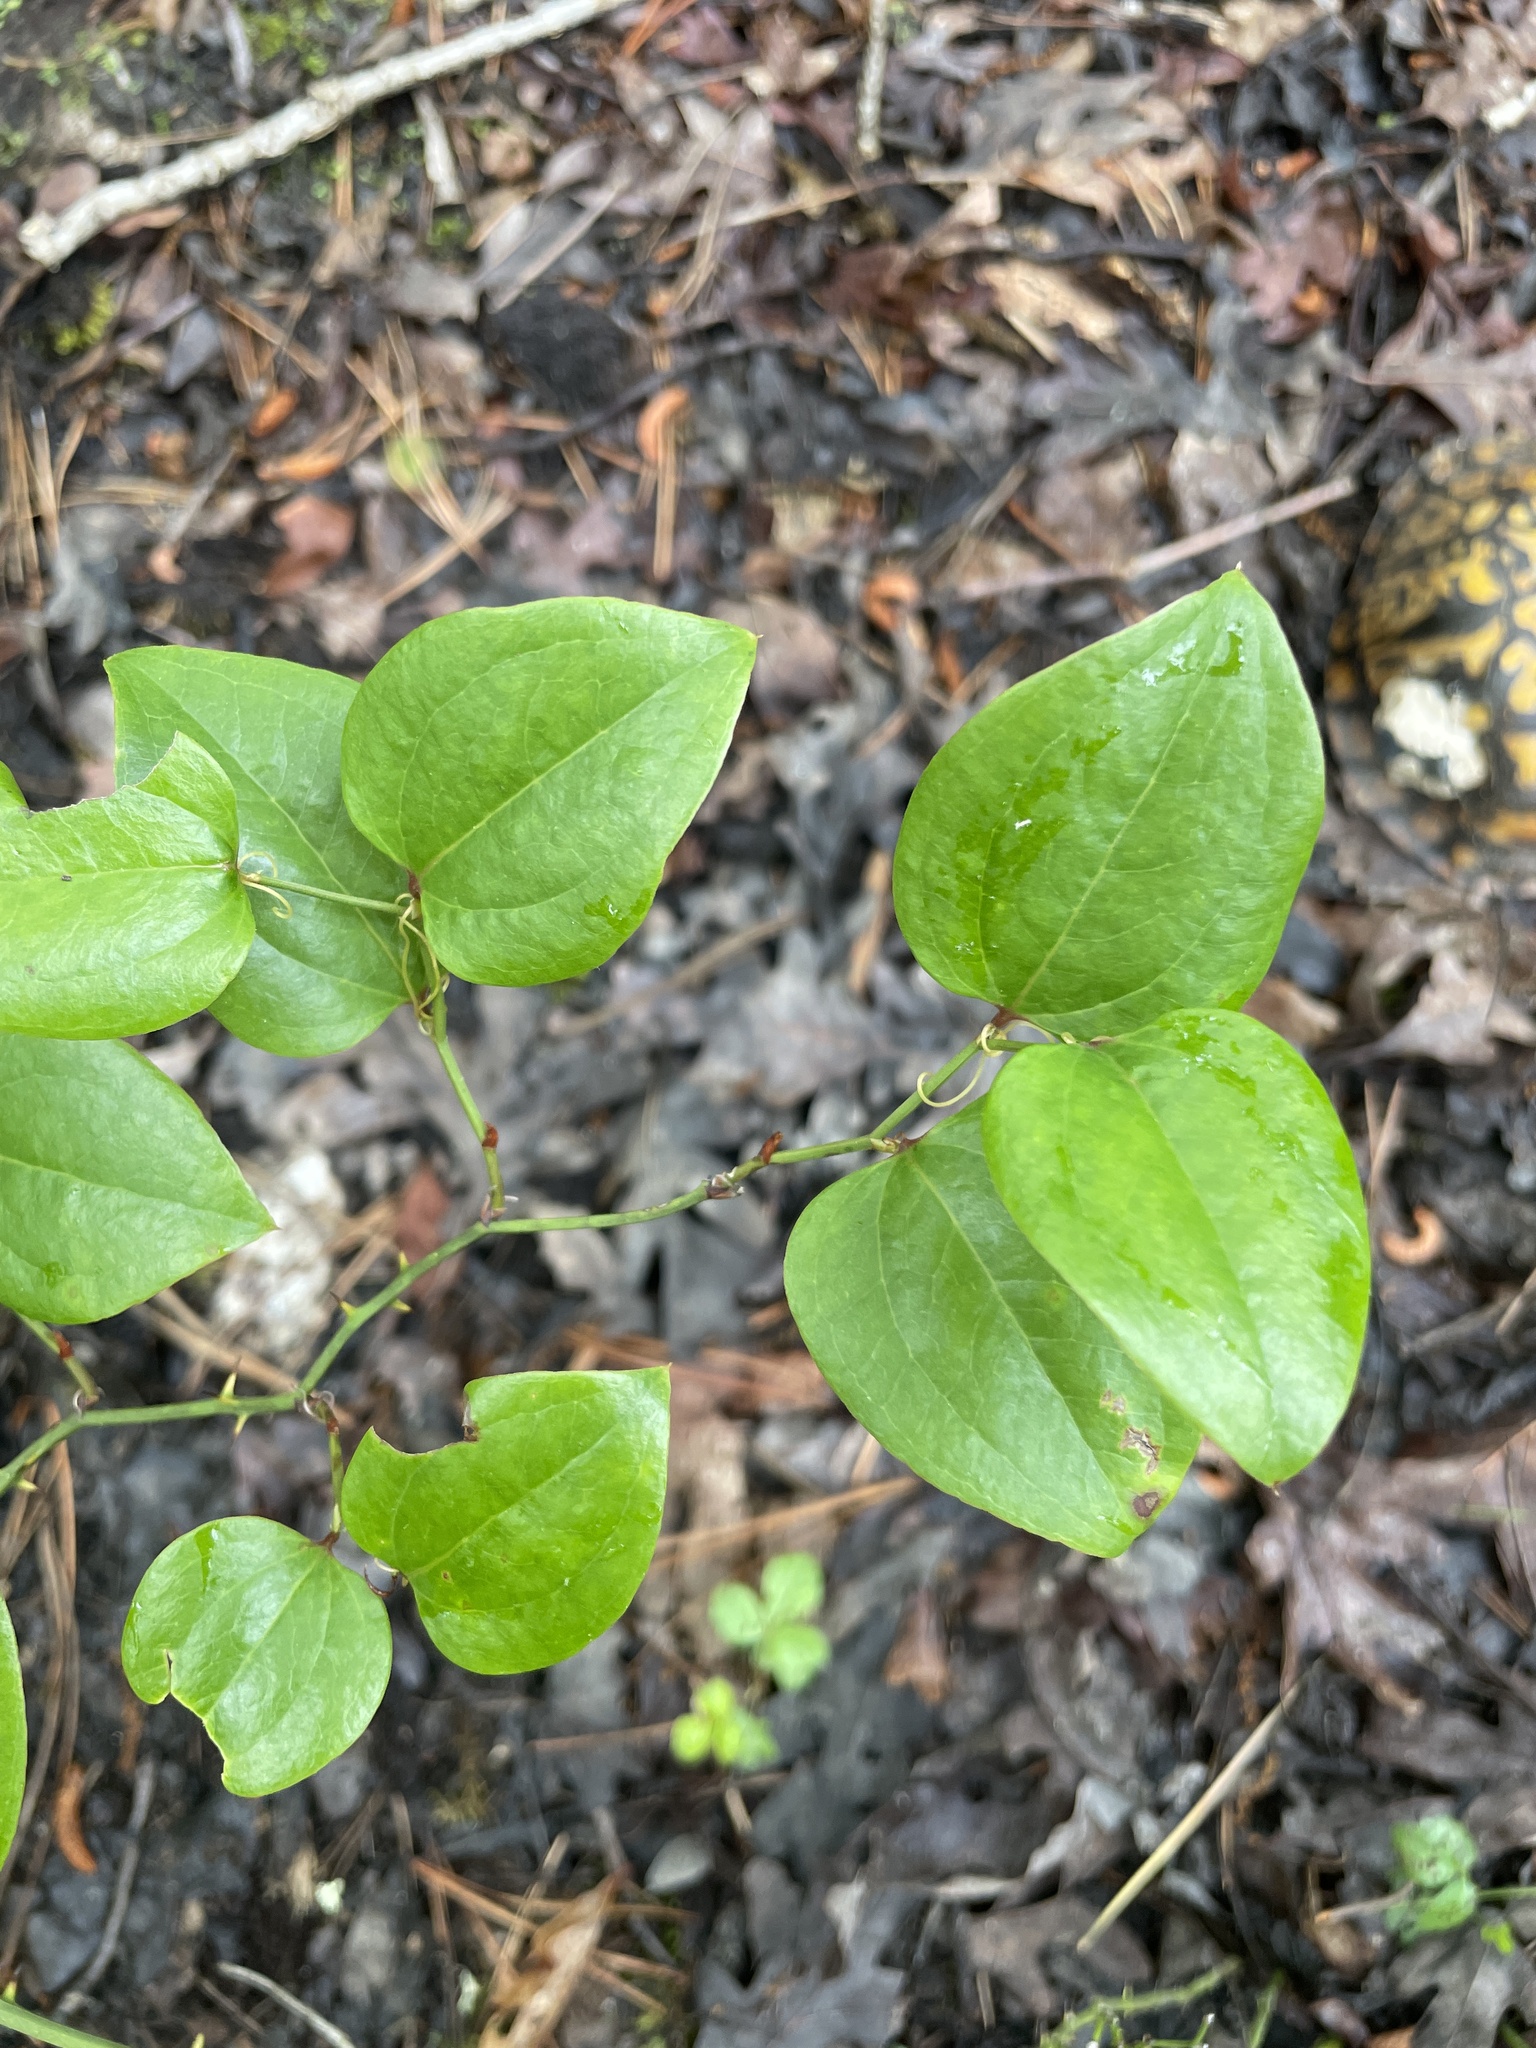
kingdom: Plantae
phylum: Tracheophyta
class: Liliopsida
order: Liliales
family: Smilacaceae
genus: Smilax
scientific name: Smilax rotundifolia
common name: Bullbriar
